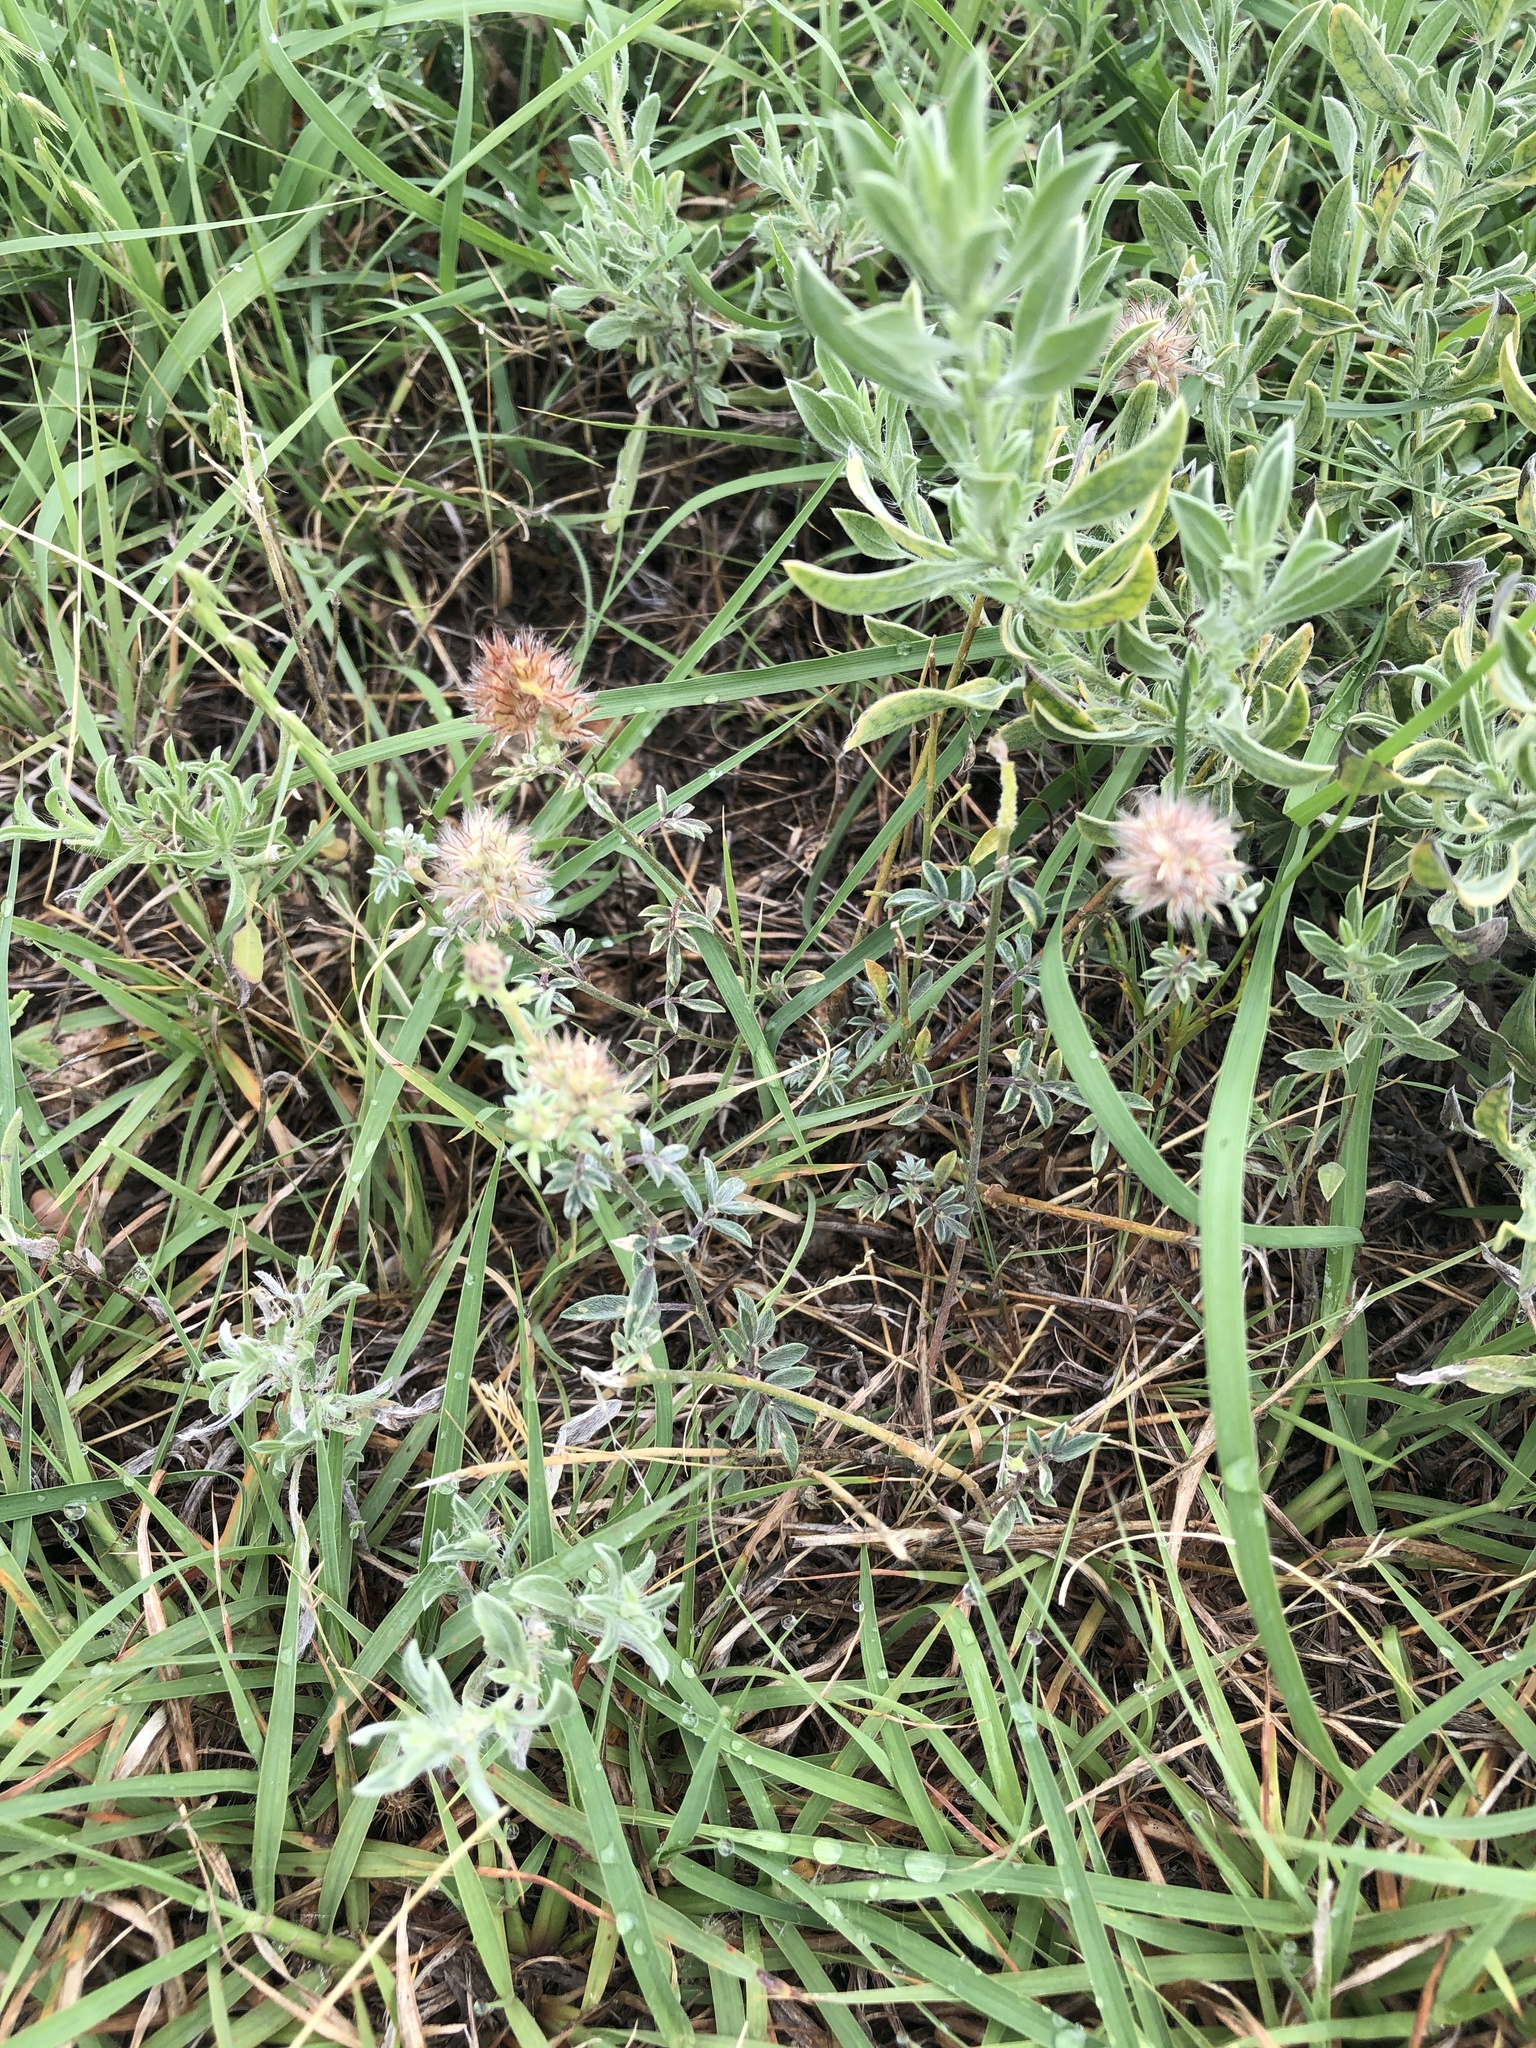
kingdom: Plantae
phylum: Tracheophyta
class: Magnoliopsida
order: Fabales
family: Fabaceae
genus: Dalea
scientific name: Dalea nana
